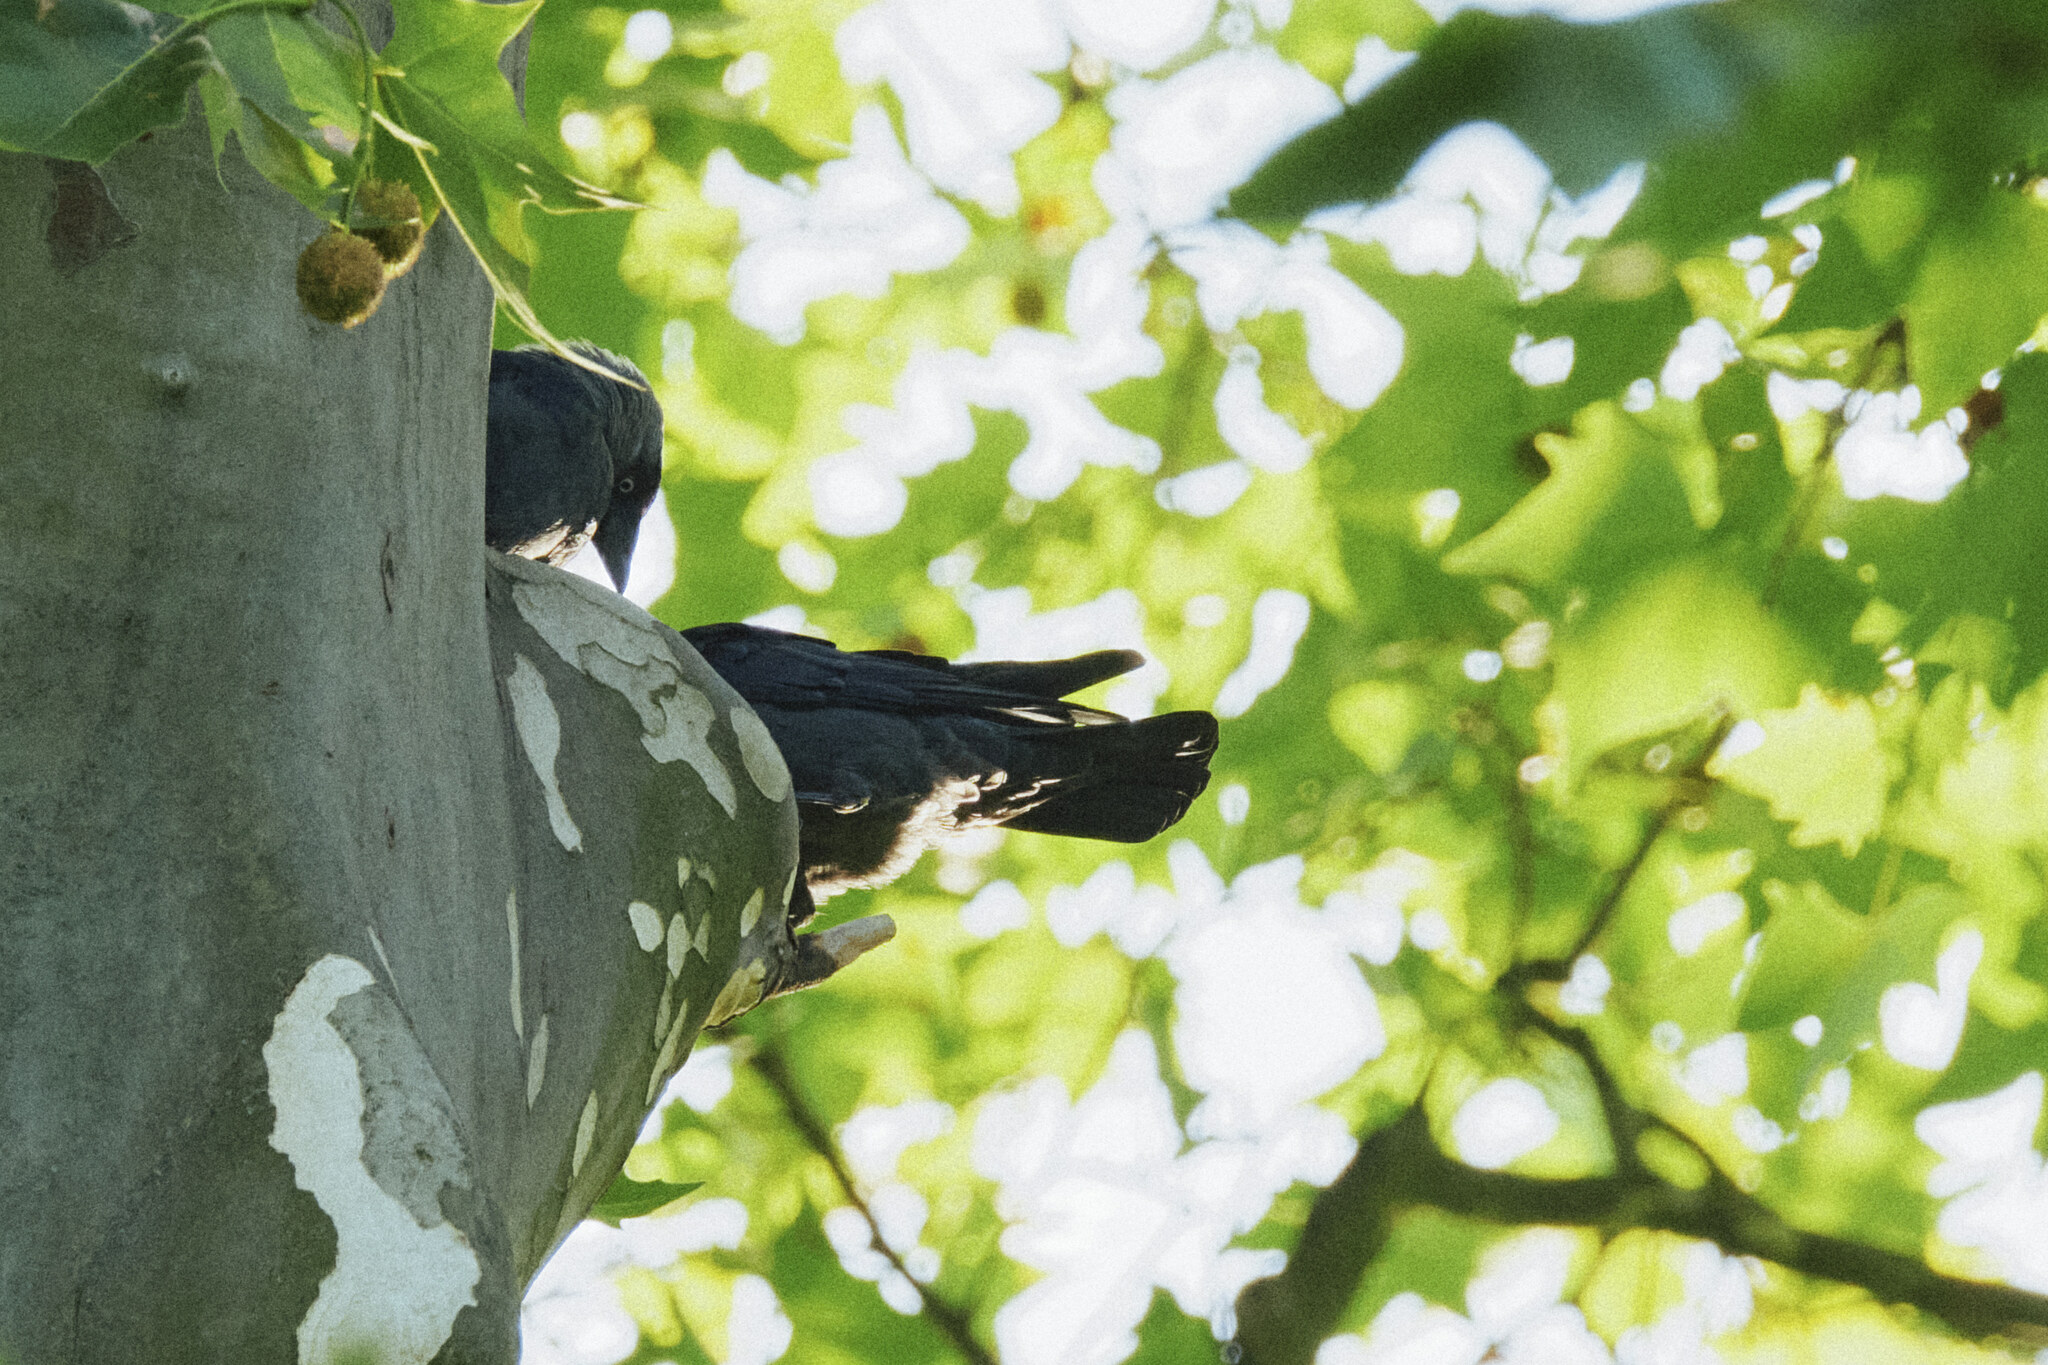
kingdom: Animalia
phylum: Chordata
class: Aves
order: Passeriformes
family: Corvidae
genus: Coloeus
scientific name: Coloeus monedula
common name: Western jackdaw
